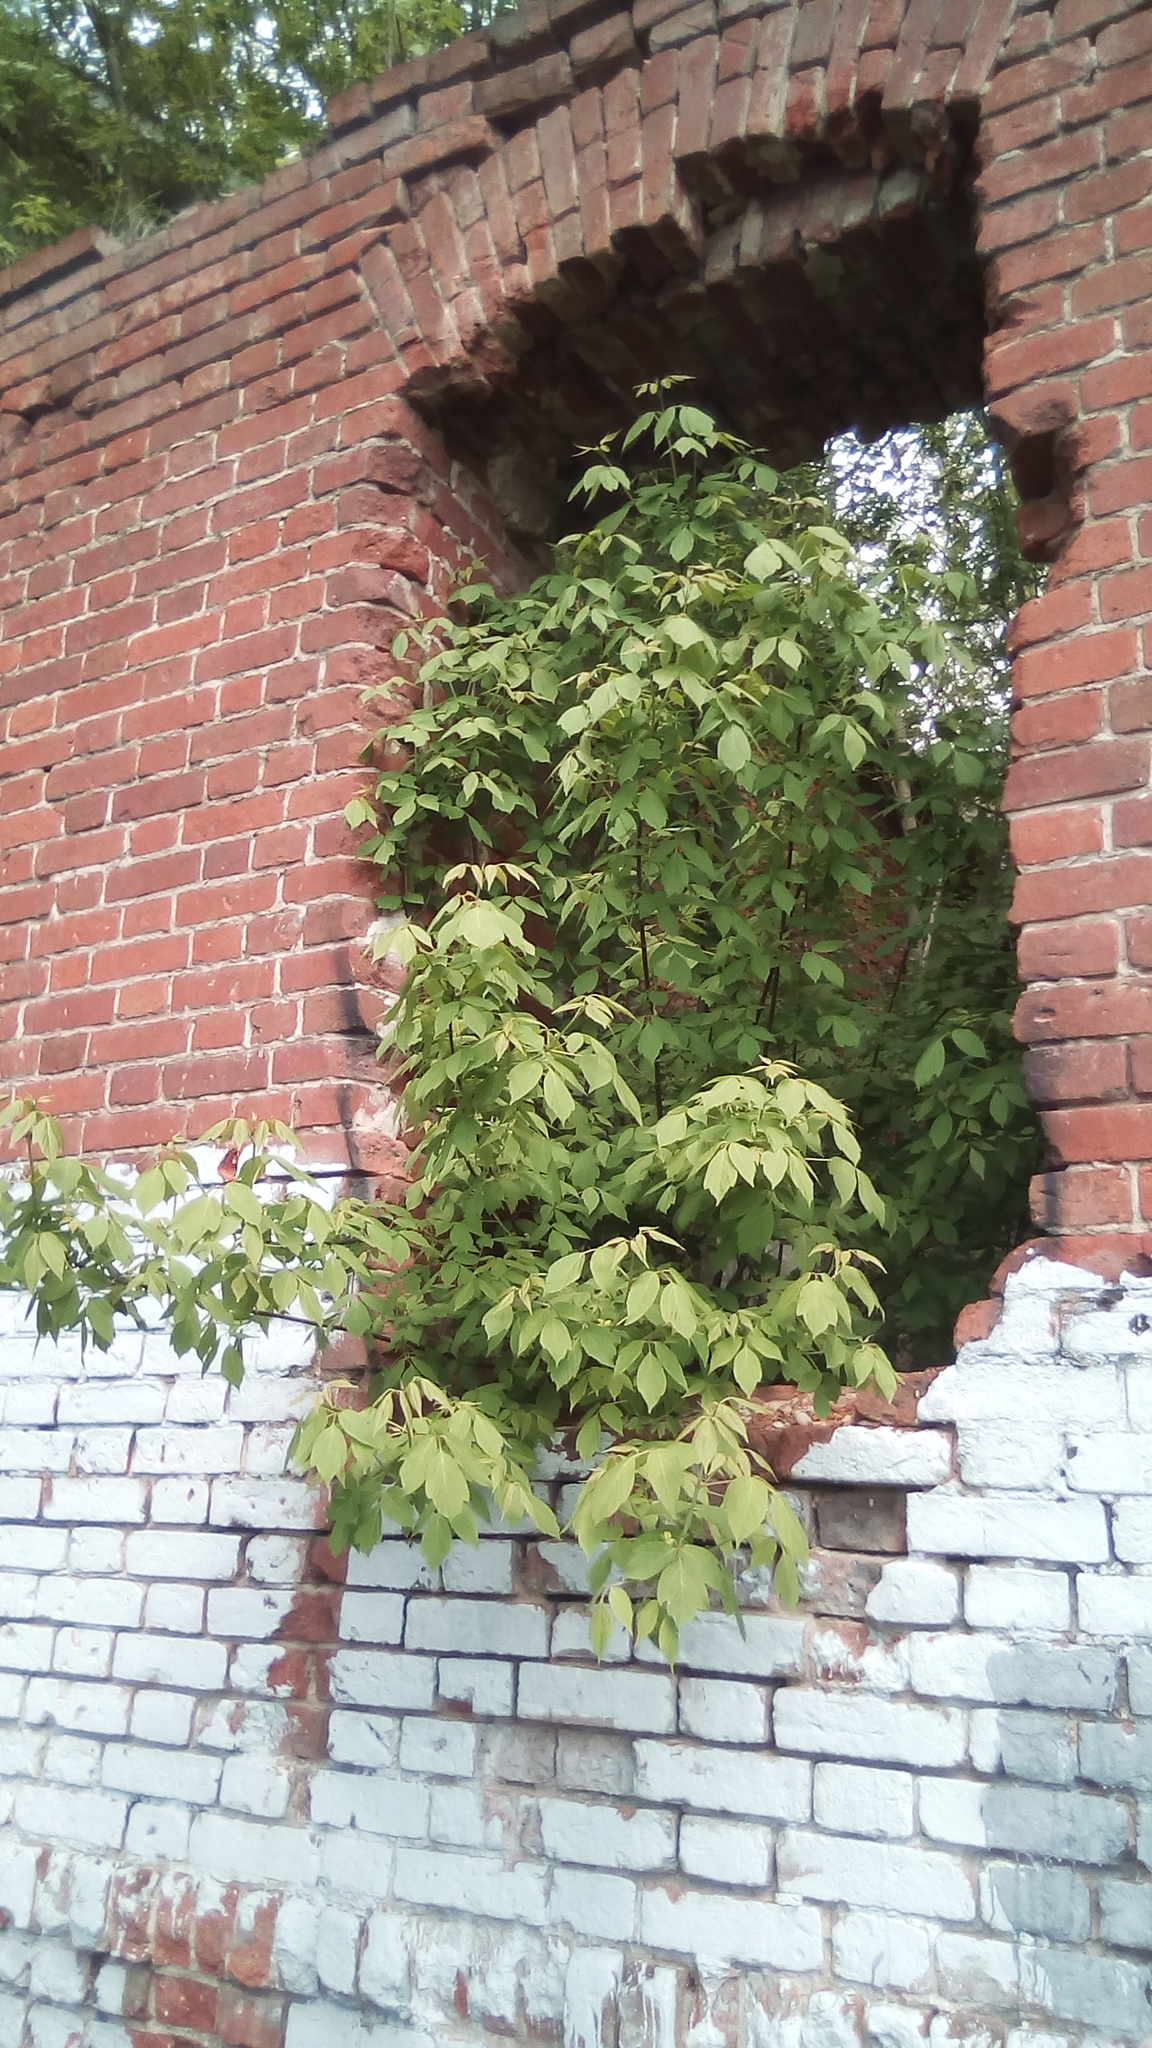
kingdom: Plantae
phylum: Tracheophyta
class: Magnoliopsida
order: Sapindales
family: Sapindaceae
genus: Acer
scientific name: Acer negundo
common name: Ashleaf maple
